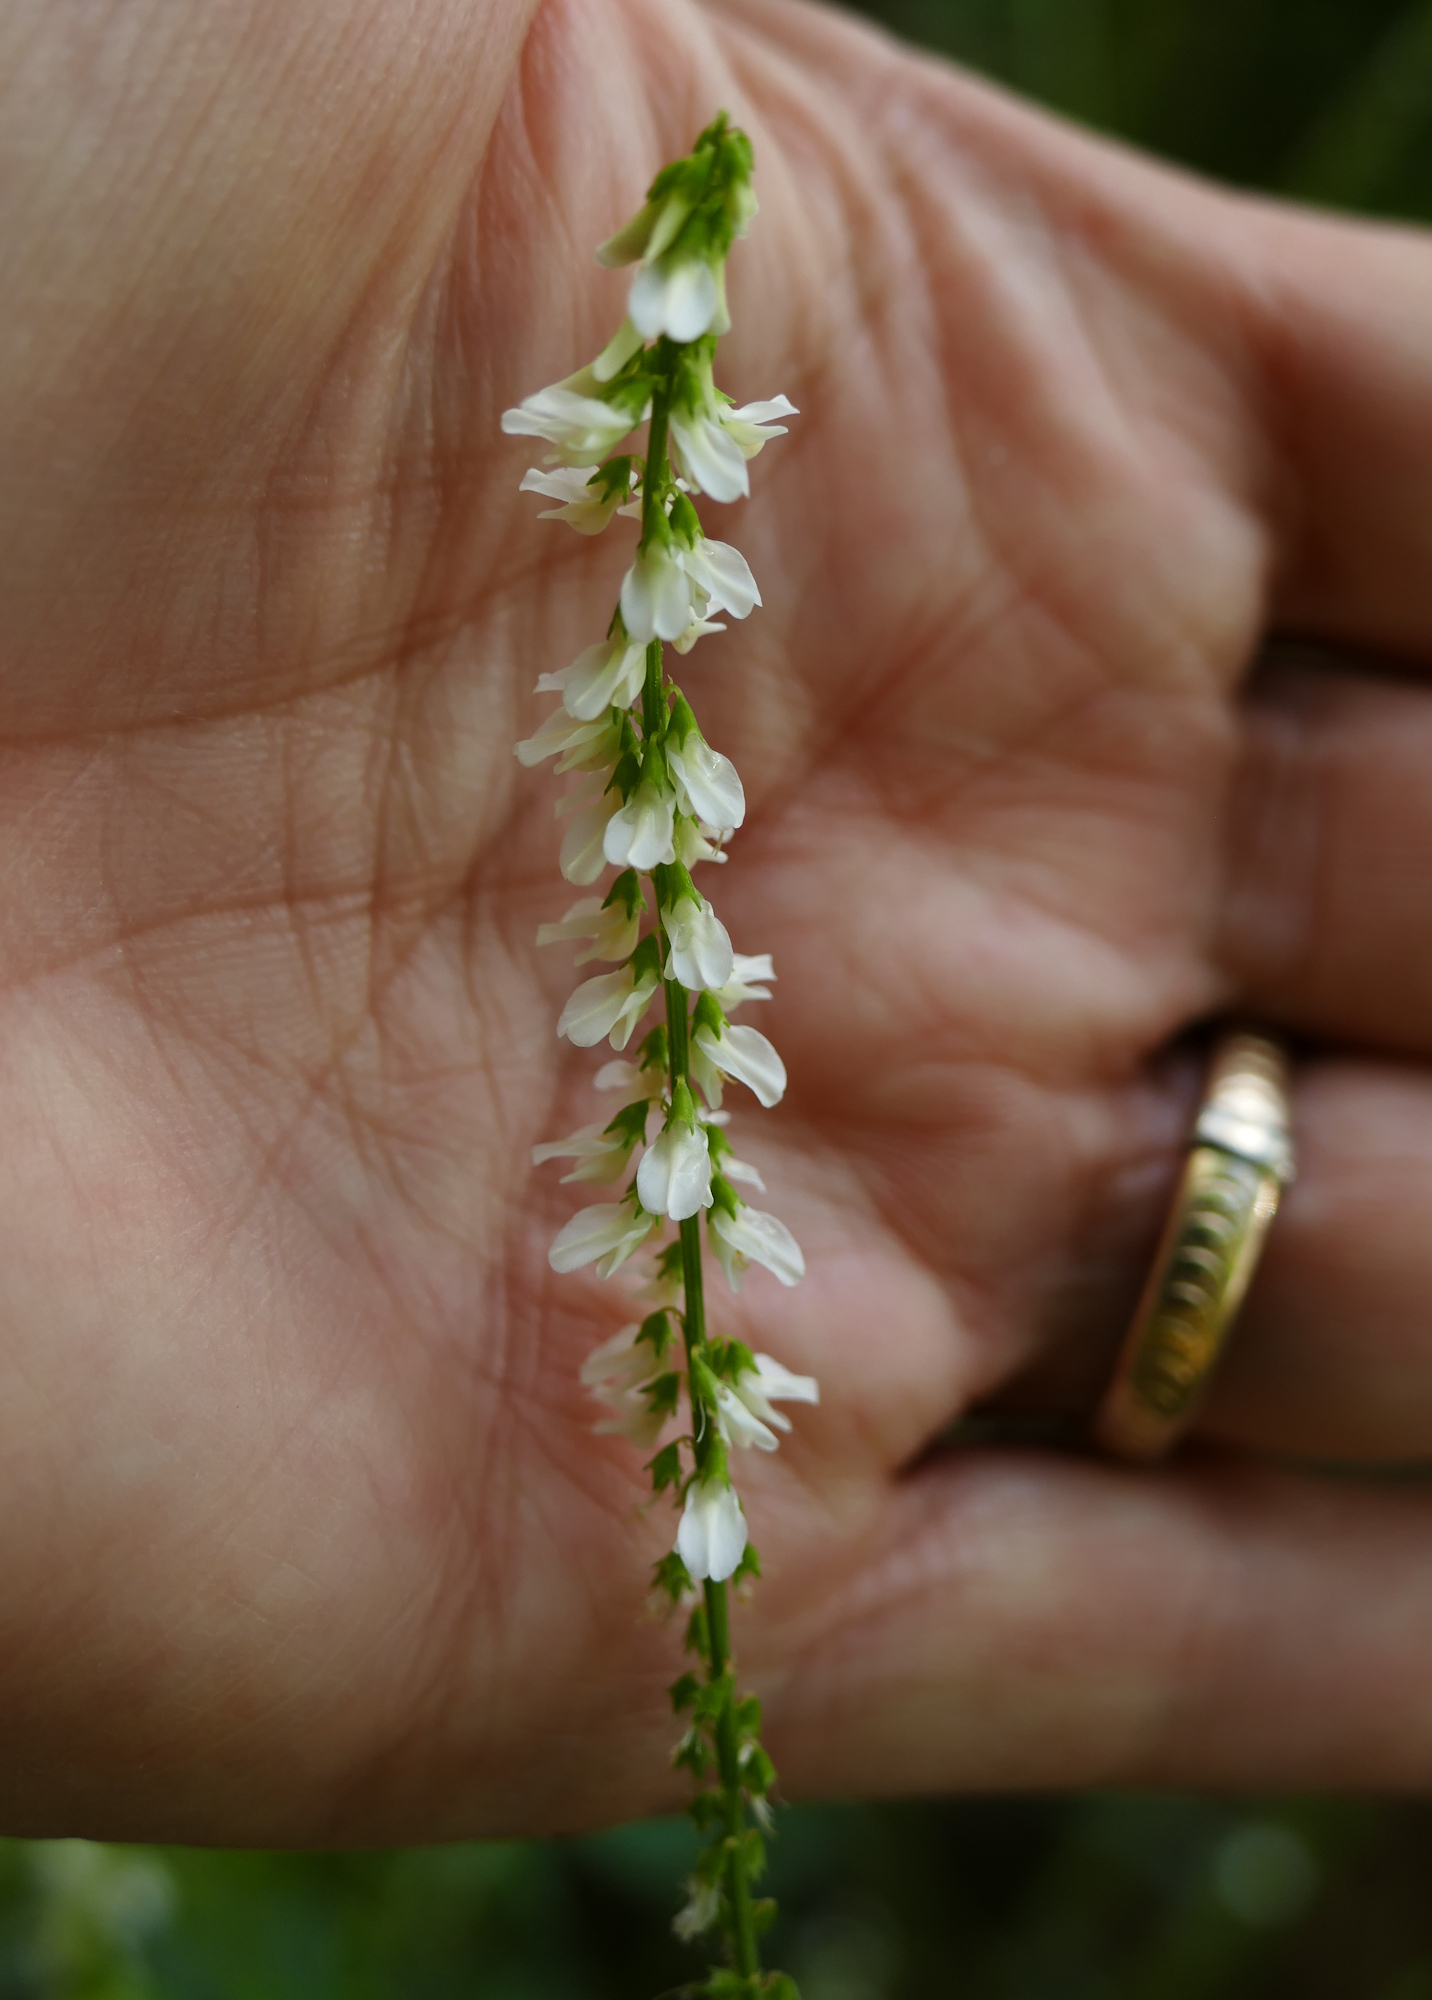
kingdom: Plantae
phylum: Tracheophyta
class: Magnoliopsida
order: Fabales
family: Fabaceae
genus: Melilotus
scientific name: Melilotus albus
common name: White melilot
